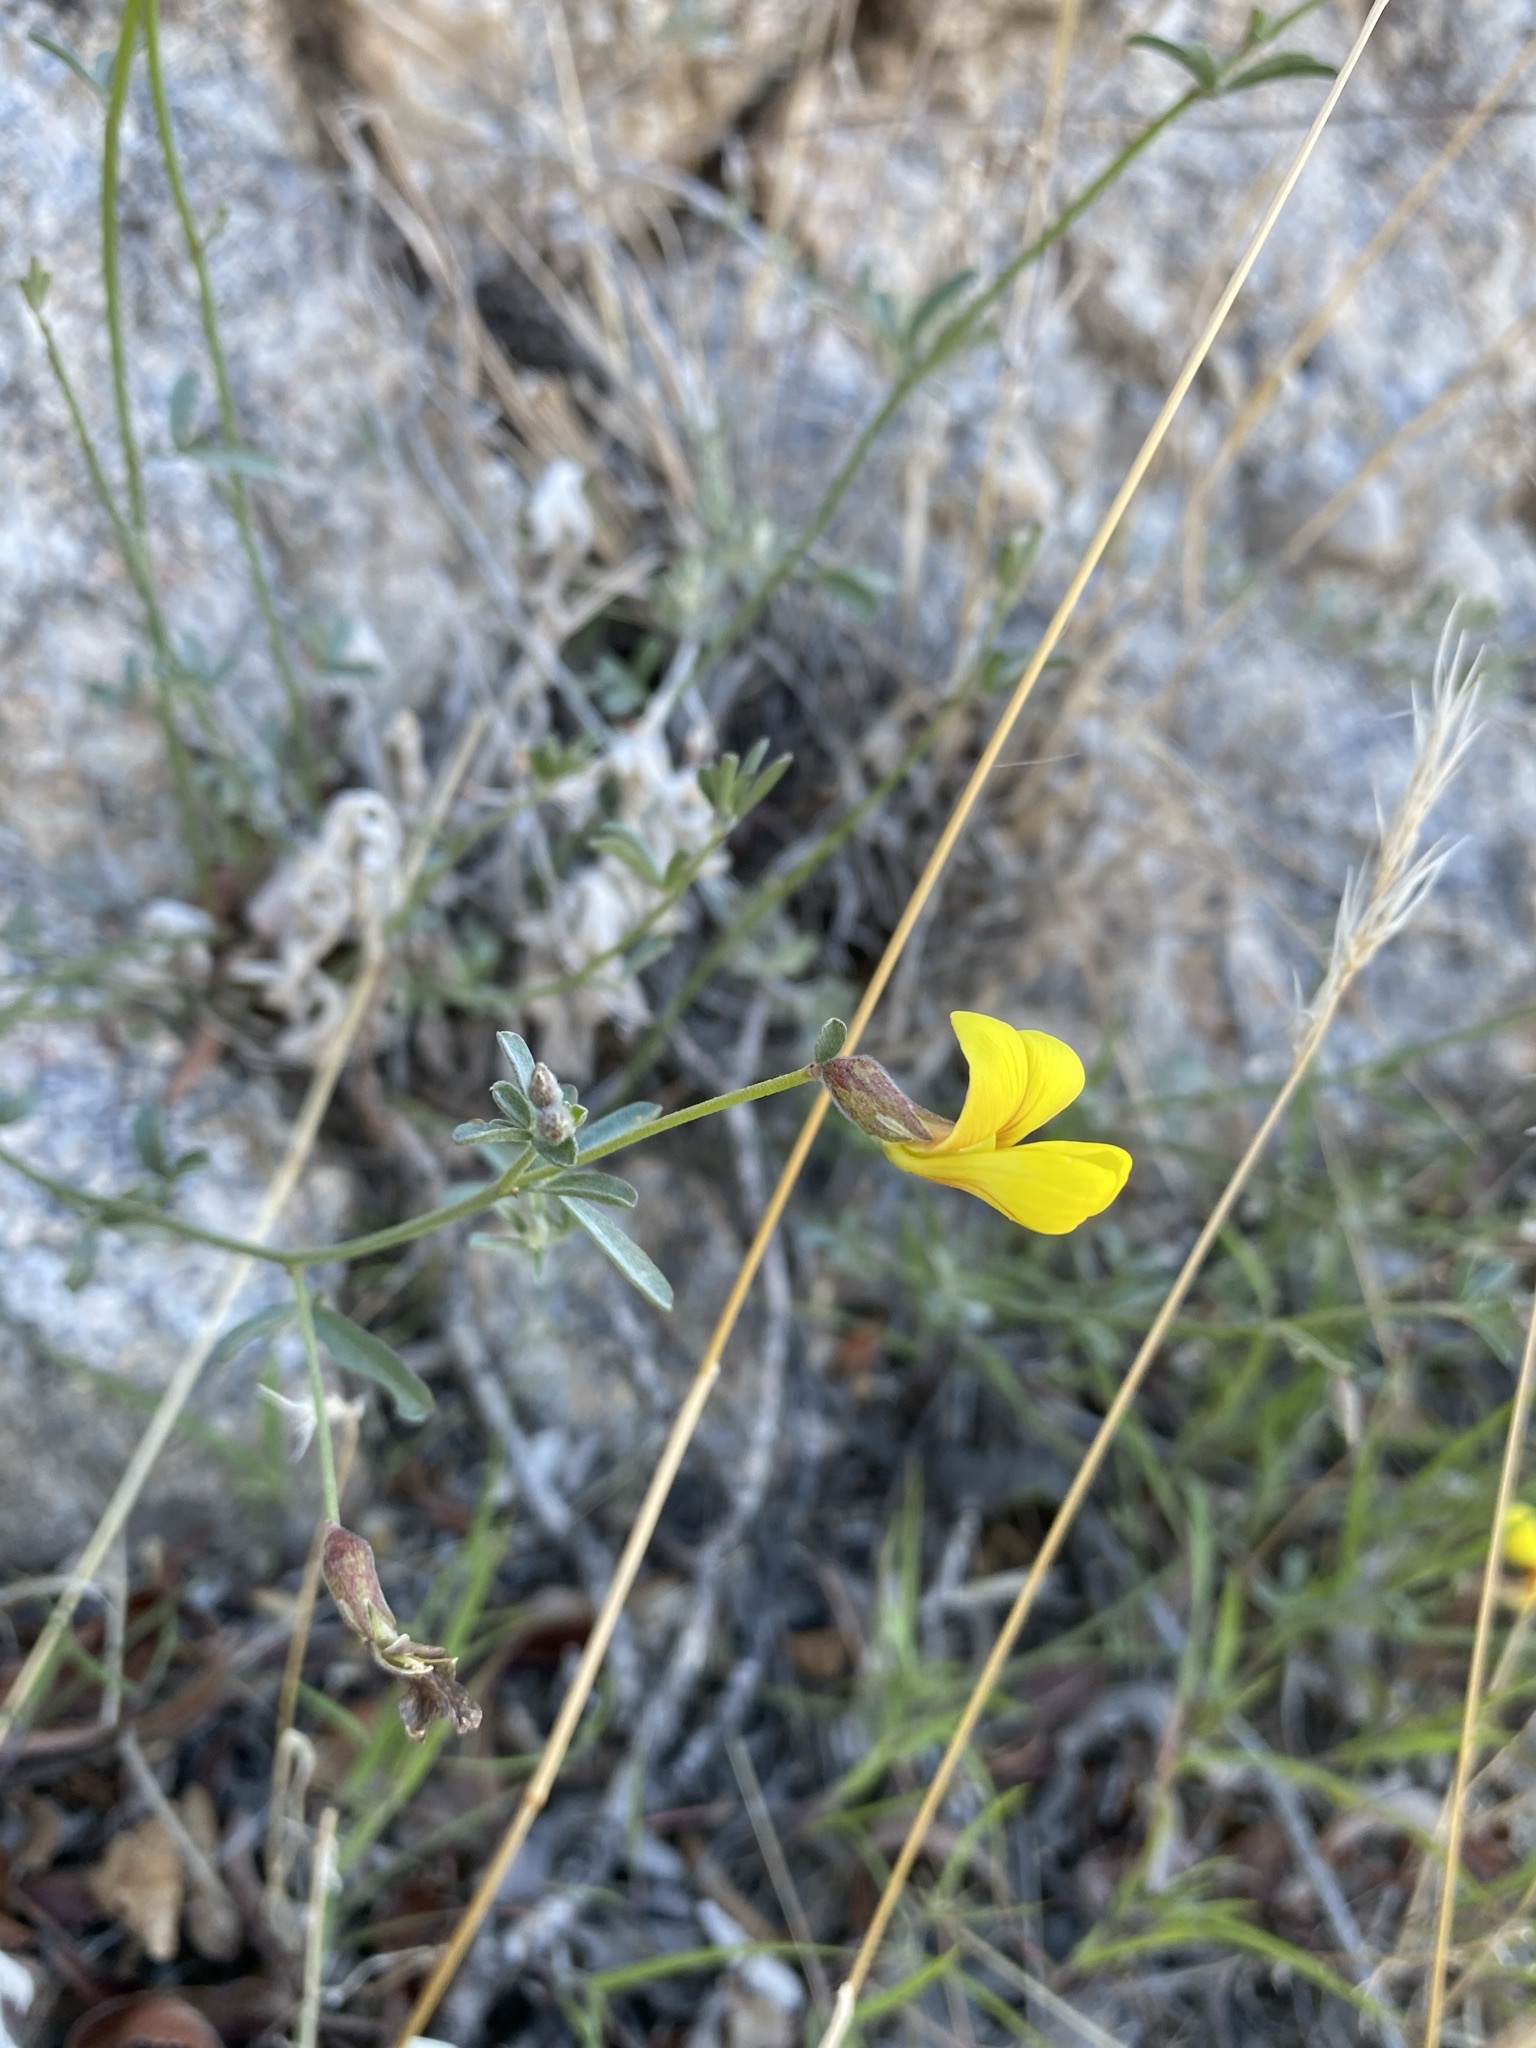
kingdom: Plantae
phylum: Tracheophyta
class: Magnoliopsida
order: Fabales
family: Fabaceae
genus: Acmispon
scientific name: Acmispon rigidus
